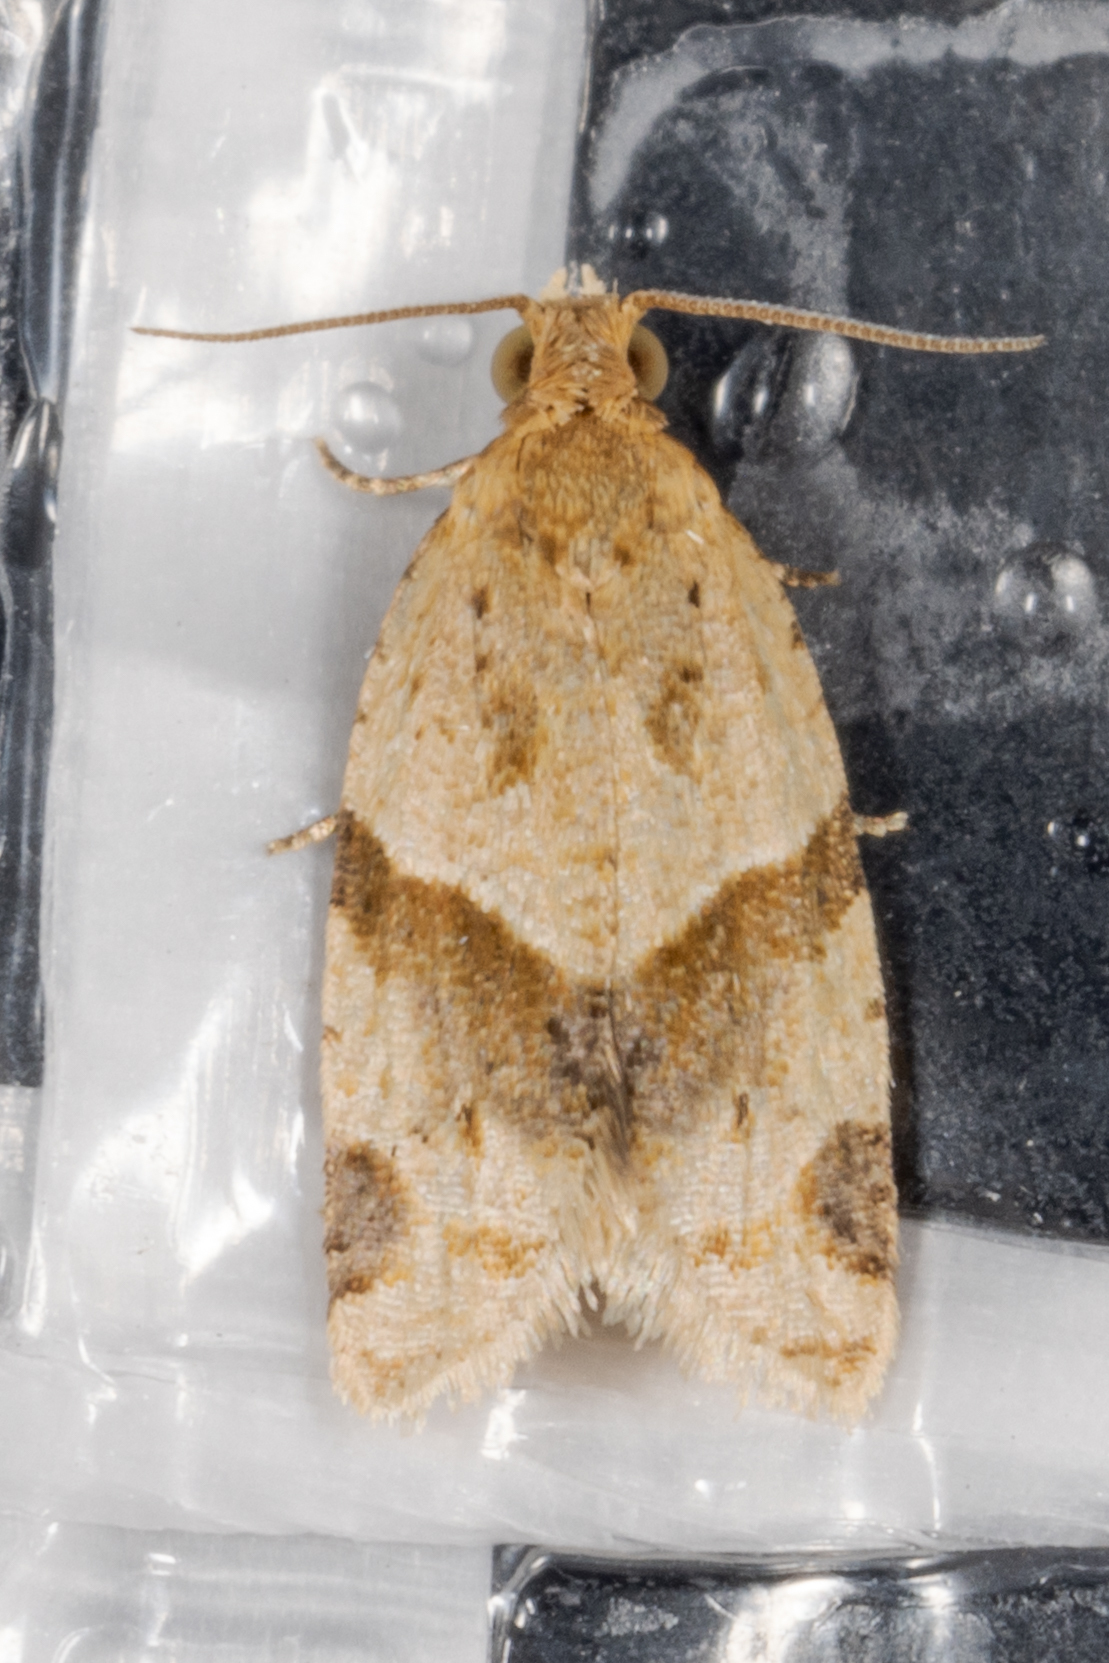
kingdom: Animalia
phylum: Arthropoda
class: Insecta
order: Lepidoptera
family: Tortricidae
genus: Clepsis
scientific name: Clepsis peritana
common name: Garden tortrix
